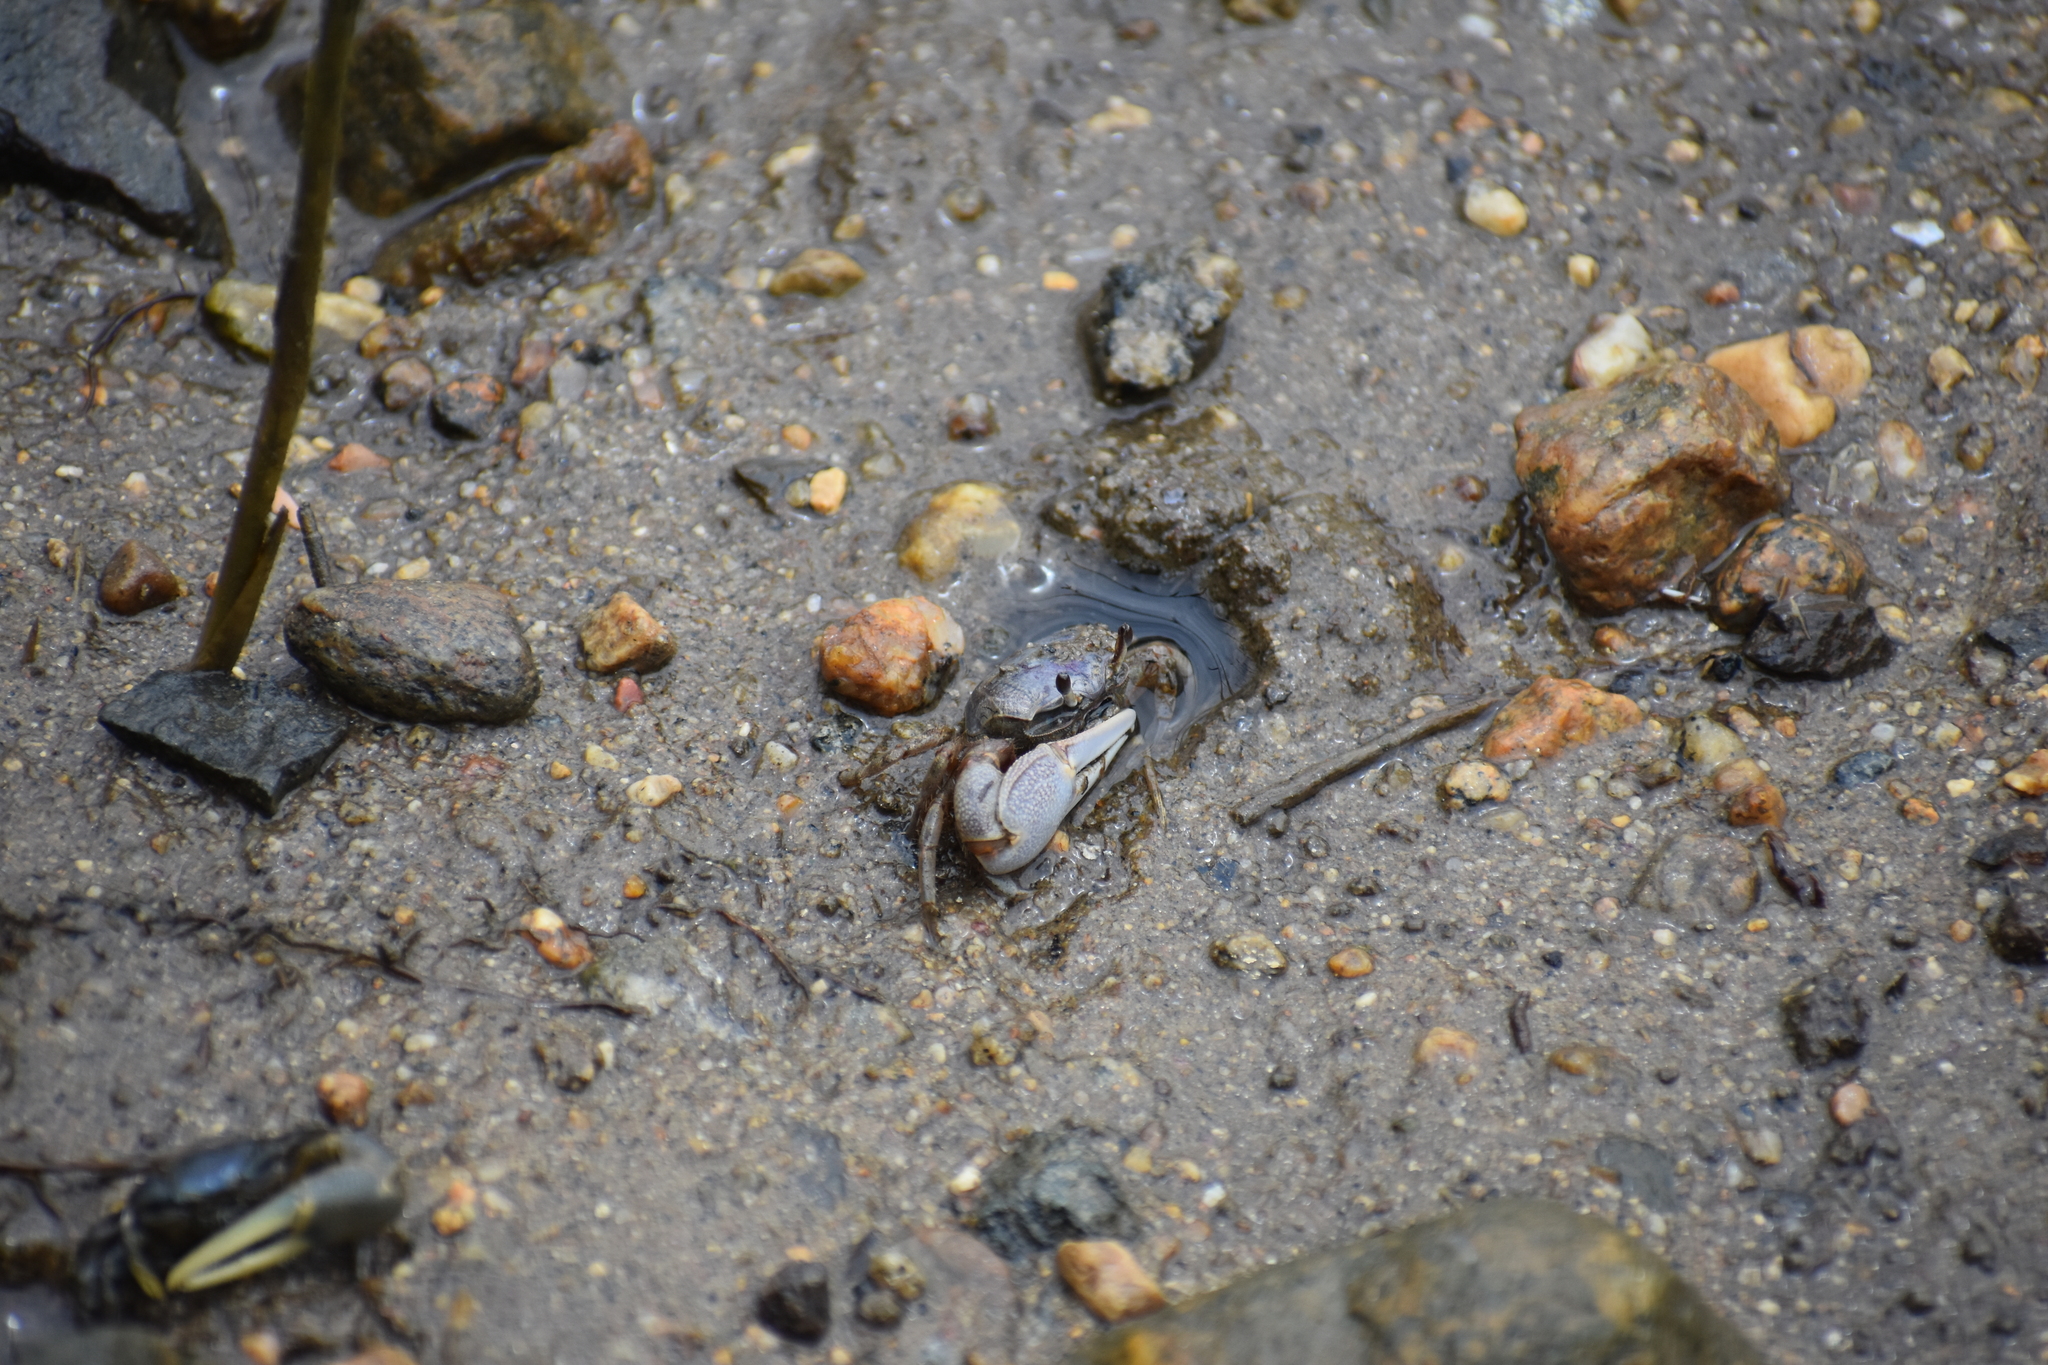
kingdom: Animalia
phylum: Arthropoda
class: Malacostraca
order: Decapoda
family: Ocypodidae
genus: Leptuca
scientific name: Leptuca pugilator
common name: Atlantic sand fiddler crab
